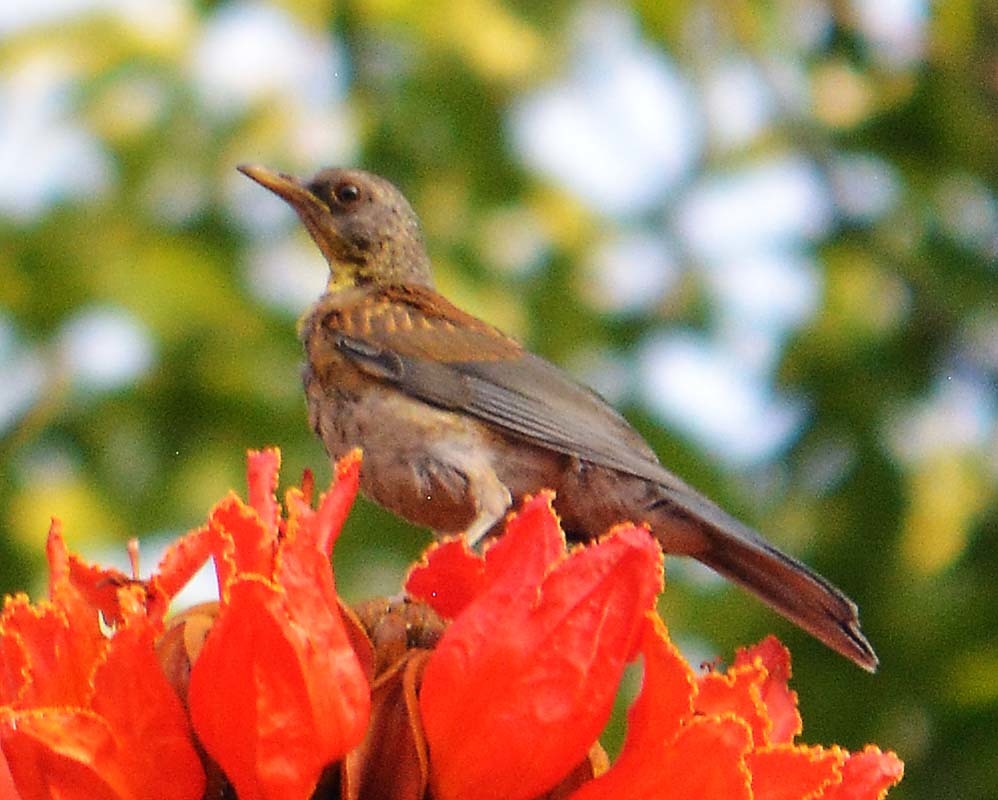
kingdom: Animalia
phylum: Chordata
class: Aves
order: Passeriformes
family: Turdidae
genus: Turdus
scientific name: Turdus rufopalliatus
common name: Rufous-backed robin
